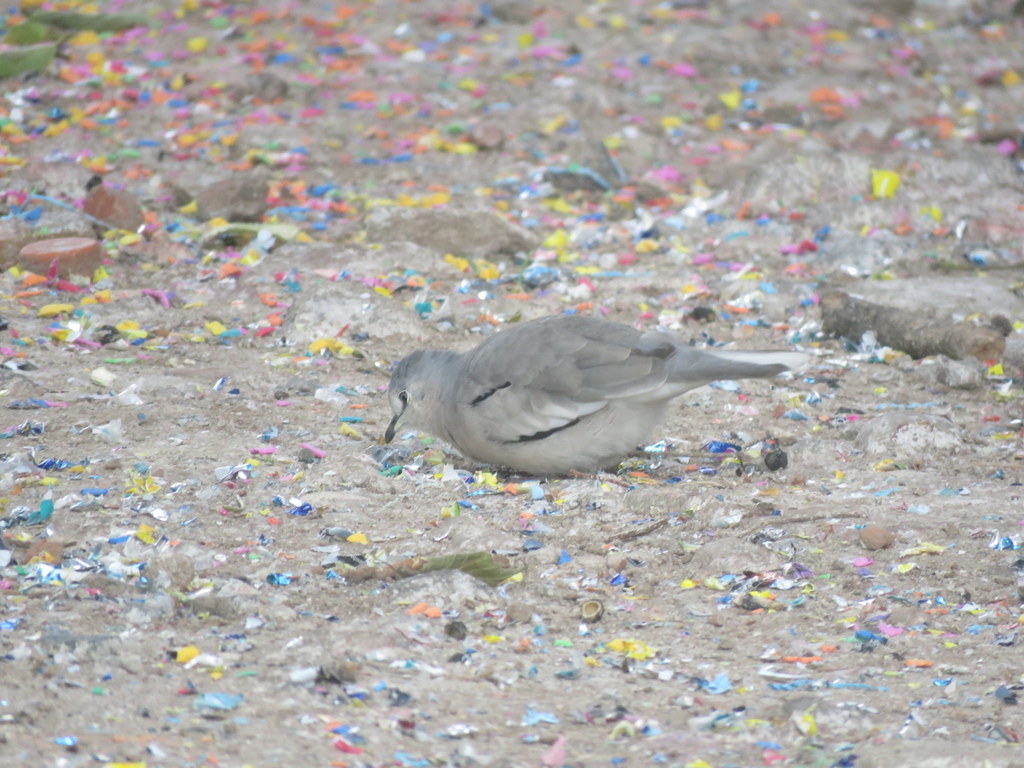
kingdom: Animalia
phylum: Chordata
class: Aves
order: Columbiformes
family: Columbidae
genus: Columbina
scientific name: Columbina picui
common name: Picui ground dove
